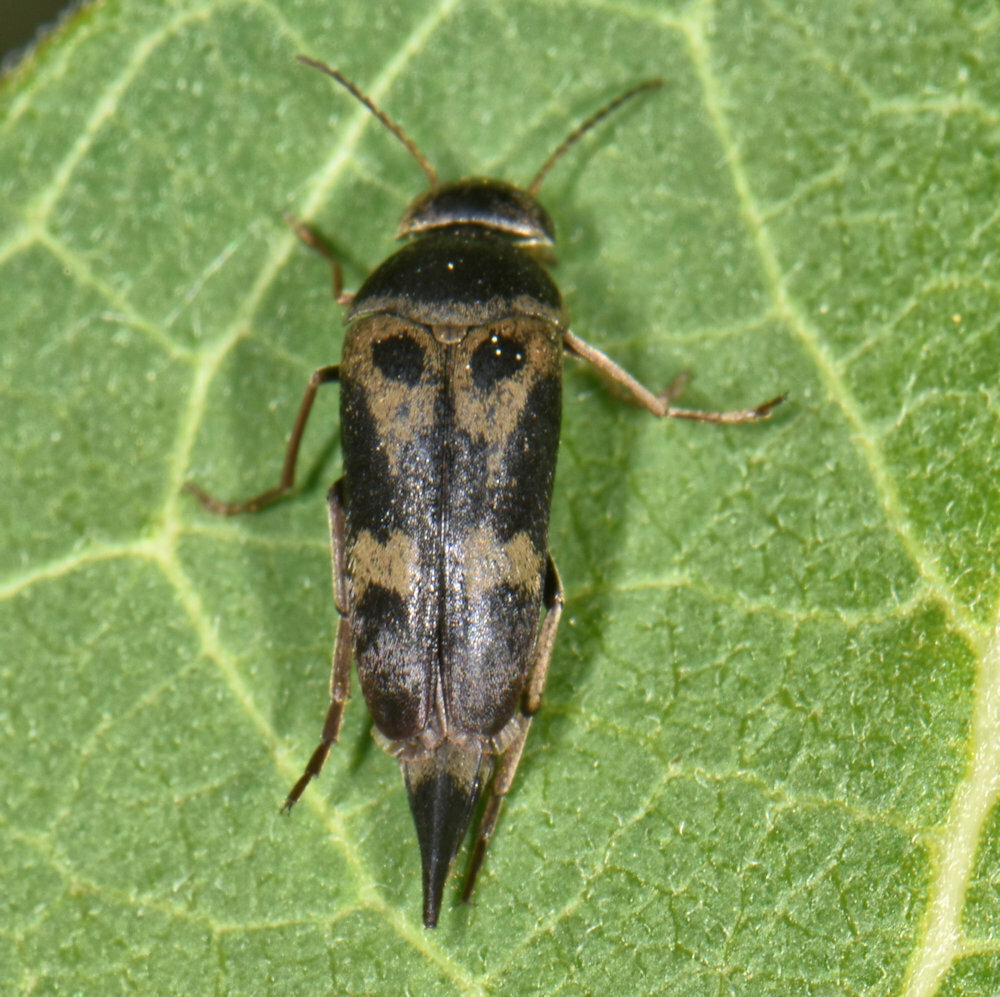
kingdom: Animalia
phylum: Arthropoda
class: Insecta
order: Coleoptera
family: Mordellidae
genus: Glipa
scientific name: Glipa oculata
